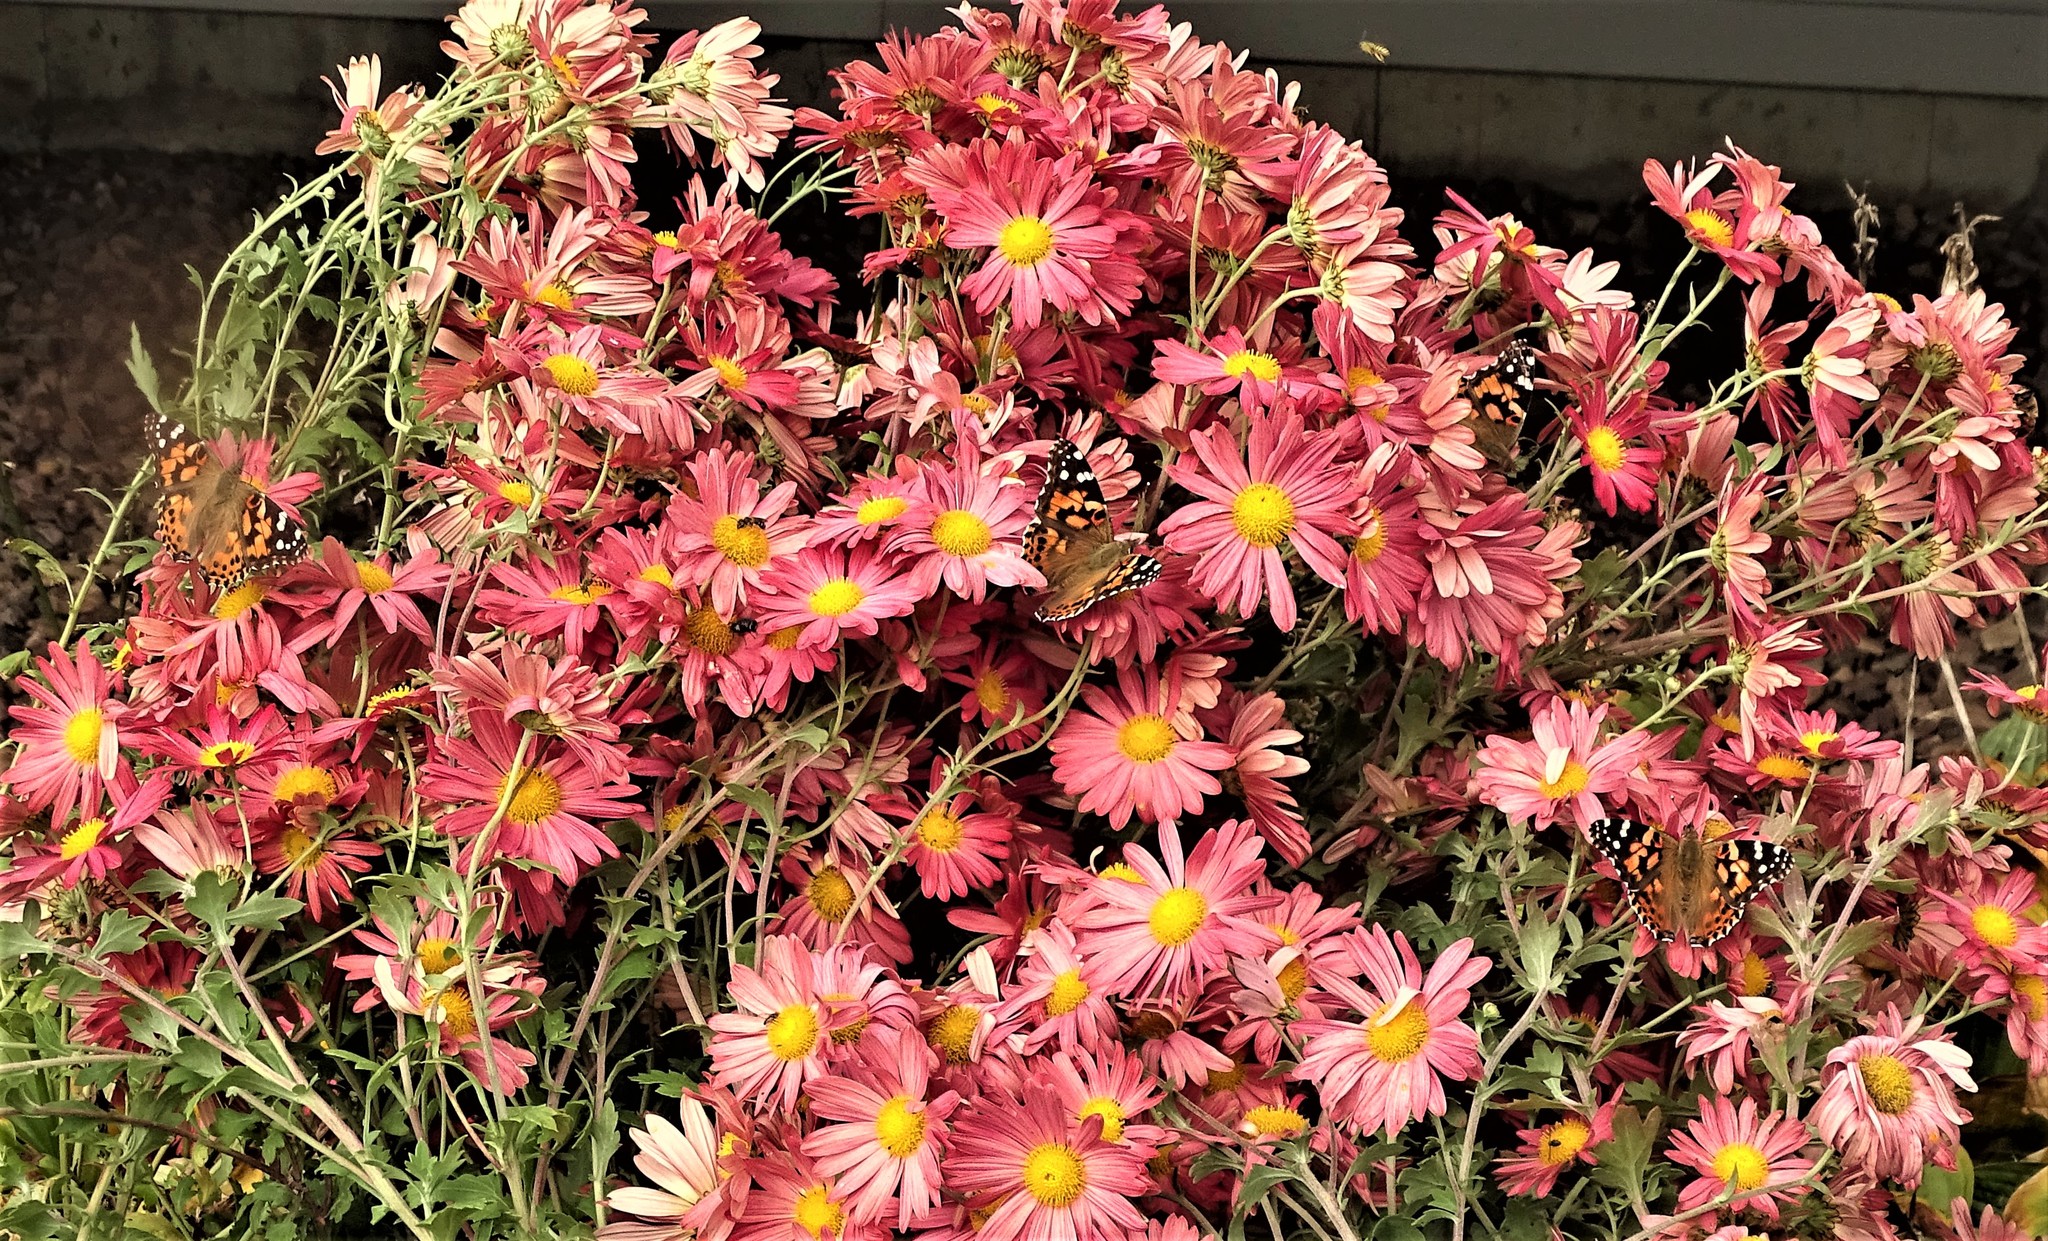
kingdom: Animalia
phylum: Arthropoda
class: Insecta
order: Lepidoptera
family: Nymphalidae
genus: Vanessa
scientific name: Vanessa cardui
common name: Painted lady
